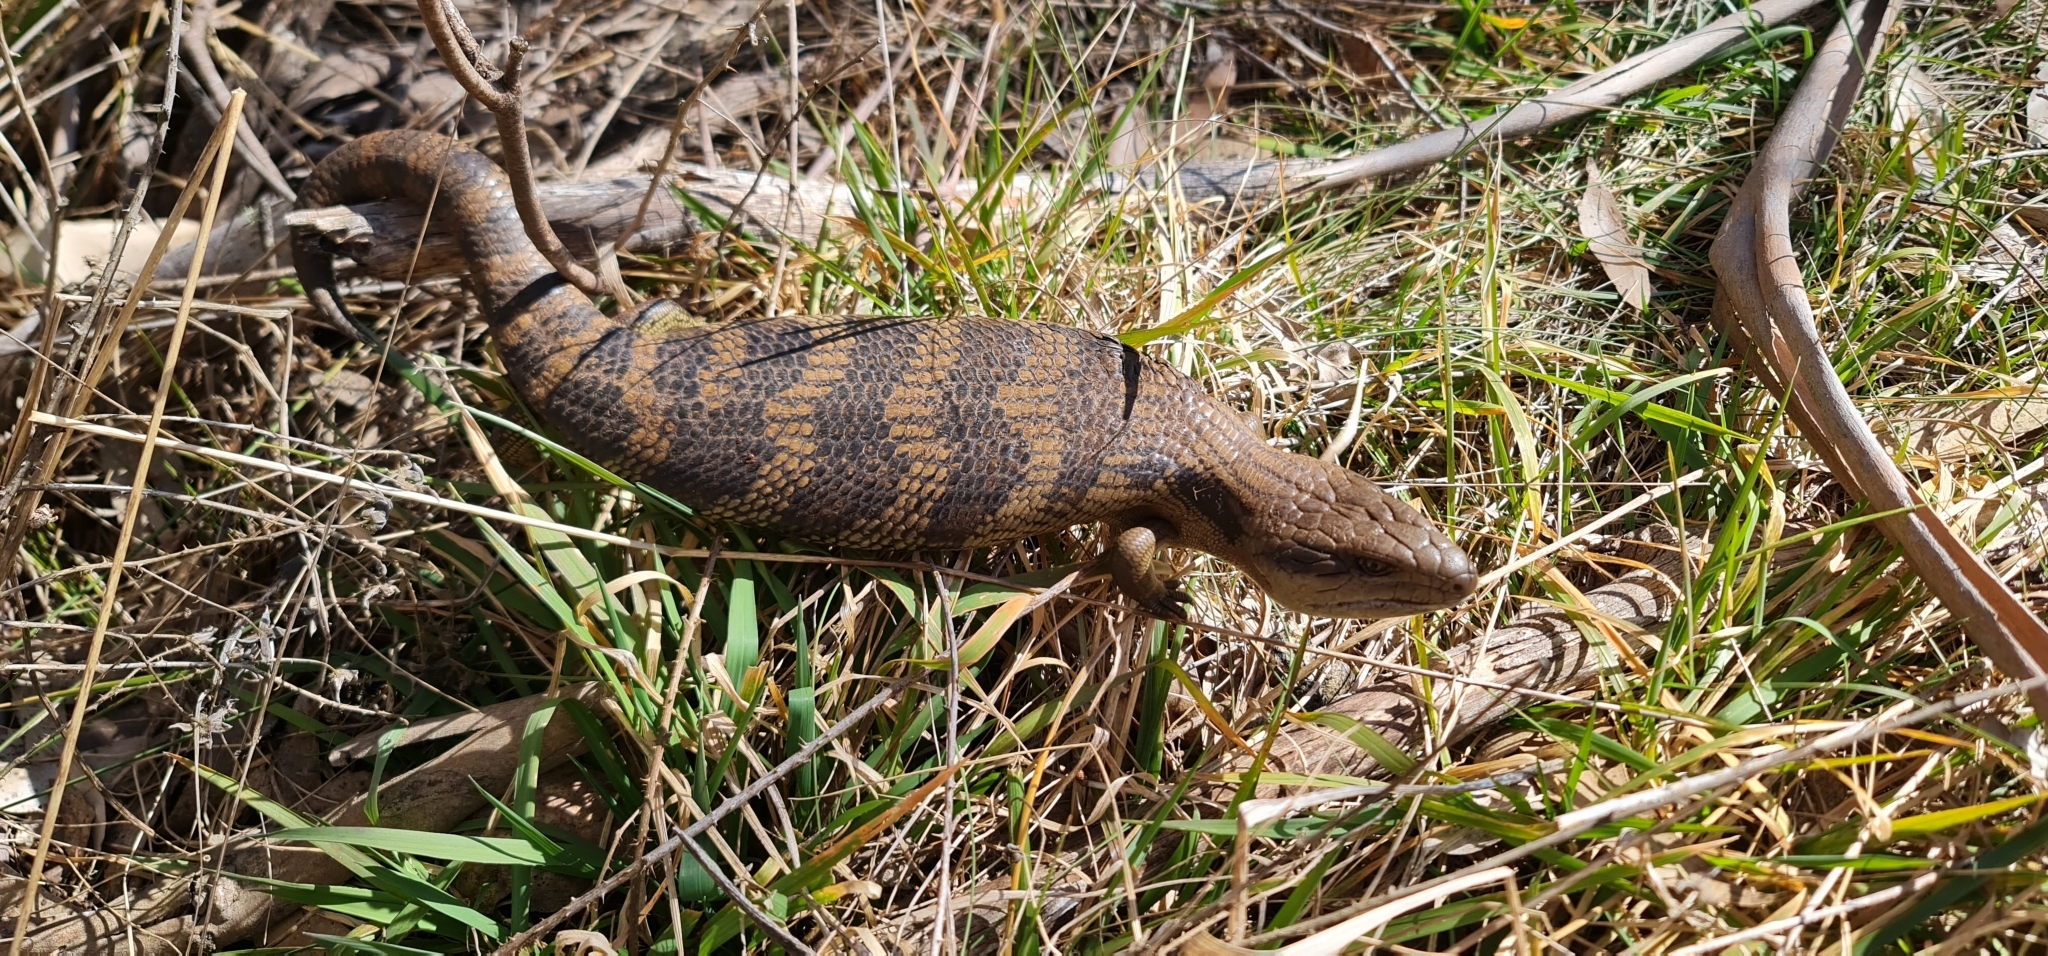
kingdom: Animalia
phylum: Chordata
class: Squamata
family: Scincidae
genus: Tiliqua
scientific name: Tiliqua scincoides
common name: Common bluetongue
